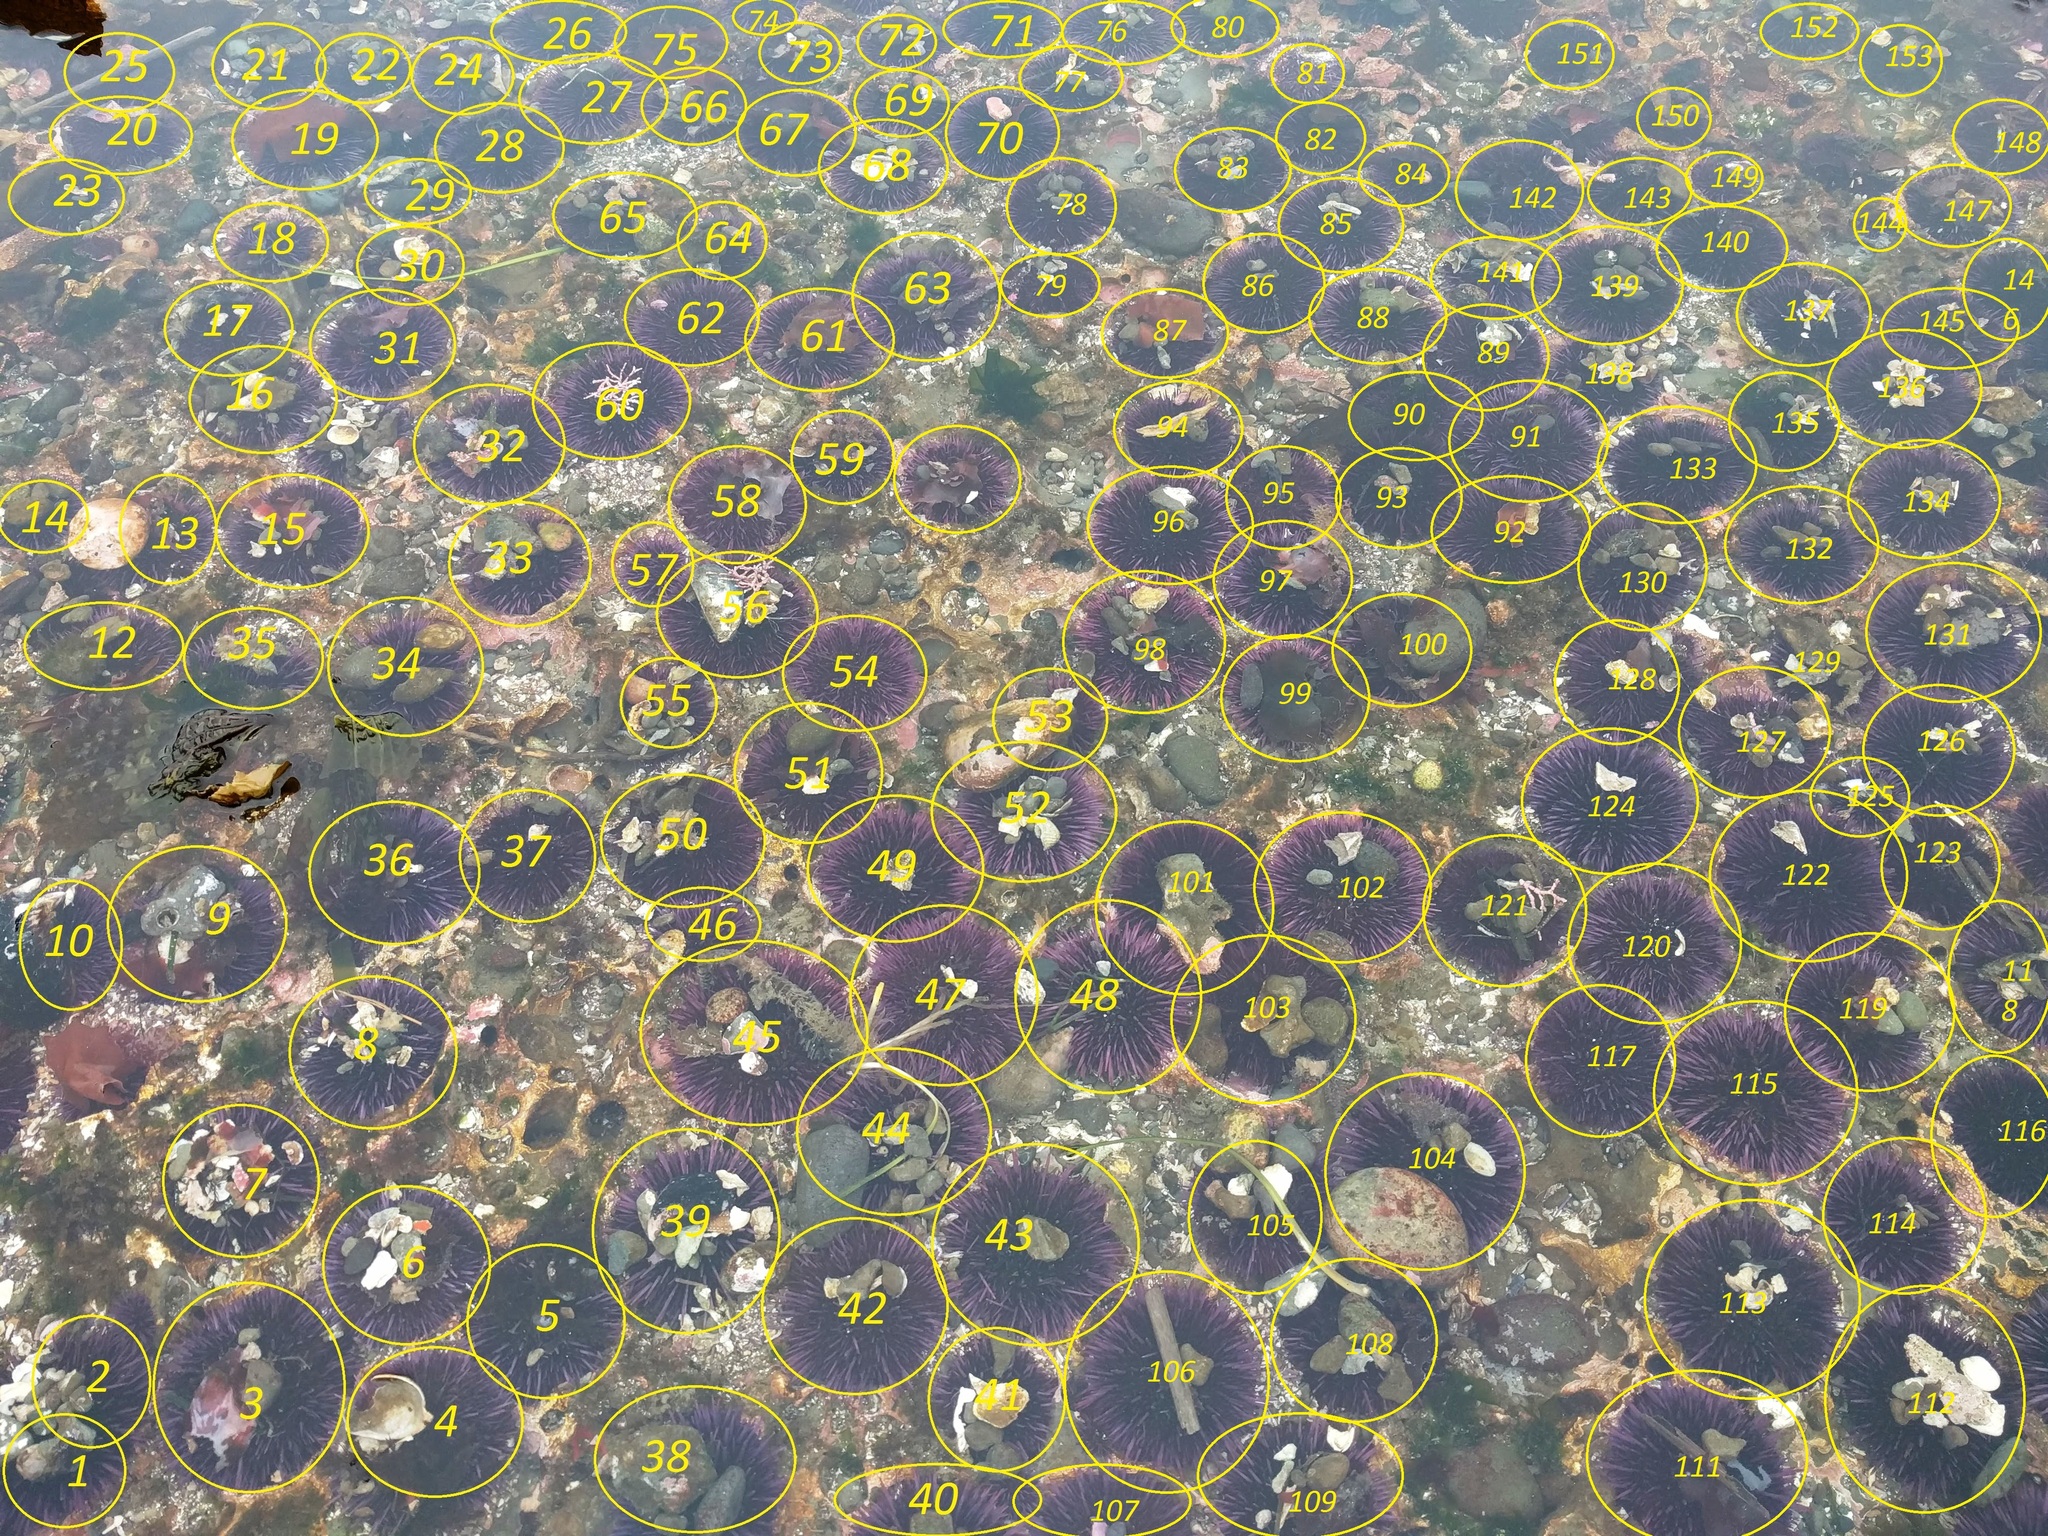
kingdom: Animalia
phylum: Echinodermata
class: Echinoidea
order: Camarodonta
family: Strongylocentrotidae
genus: Strongylocentrotus
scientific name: Strongylocentrotus purpuratus
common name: Purple sea urchin
